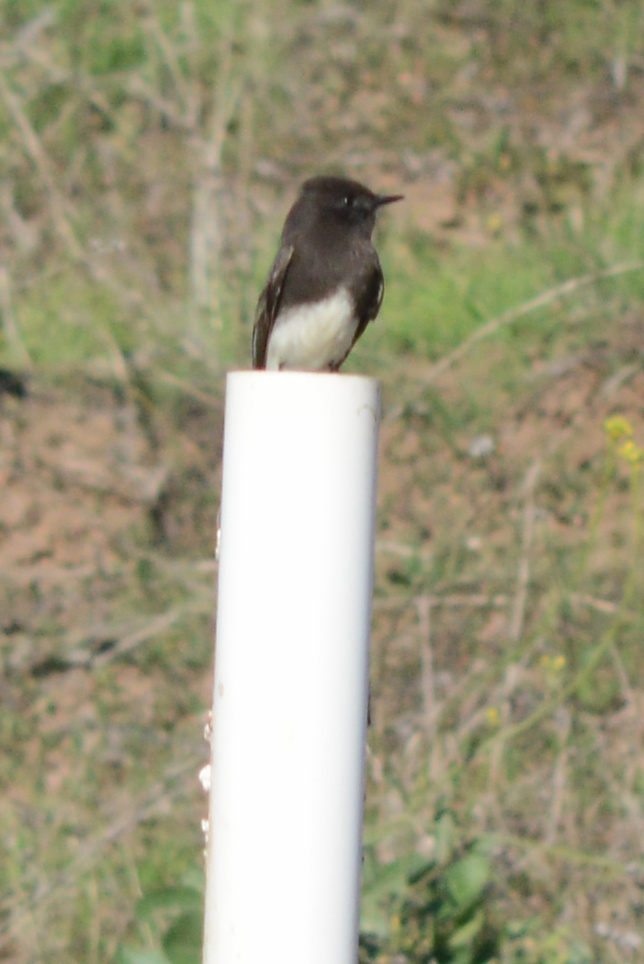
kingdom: Animalia
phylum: Chordata
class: Aves
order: Passeriformes
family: Tyrannidae
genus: Sayornis
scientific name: Sayornis nigricans
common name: Black phoebe
